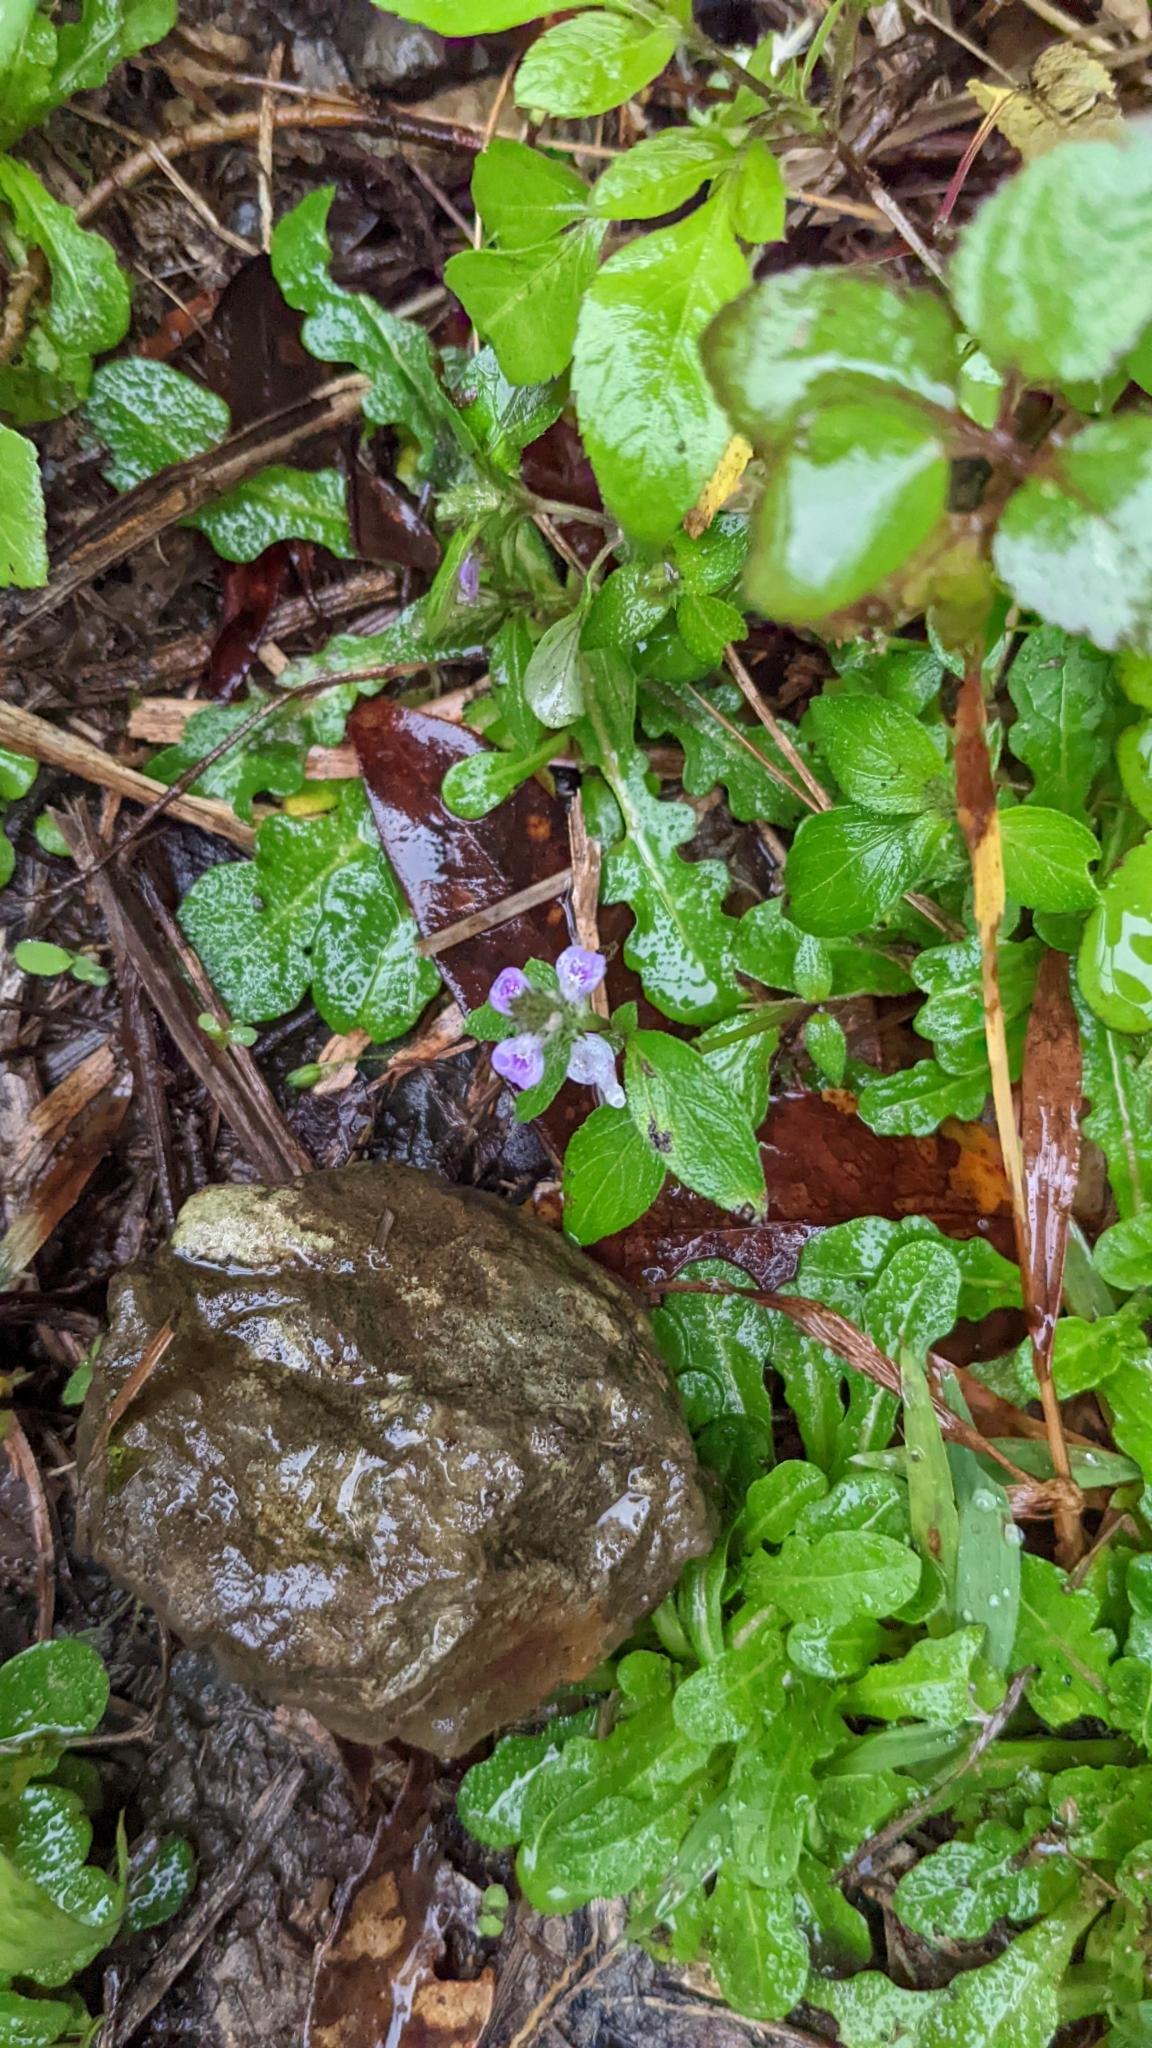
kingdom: Plantae
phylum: Tracheophyta
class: Magnoliopsida
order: Lamiales
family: Acanthaceae
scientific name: Acanthaceae
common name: Acanthaceae
